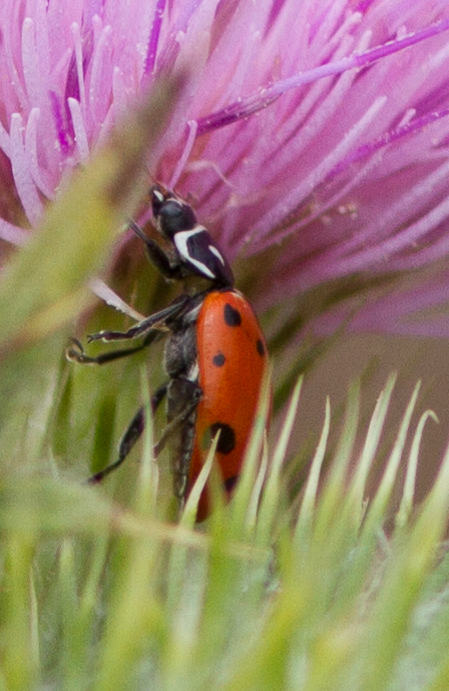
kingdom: Animalia
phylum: Arthropoda
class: Insecta
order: Coleoptera
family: Coccinellidae
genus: Hippodamia
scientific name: Hippodamia convergens
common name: Convergent lady beetle
